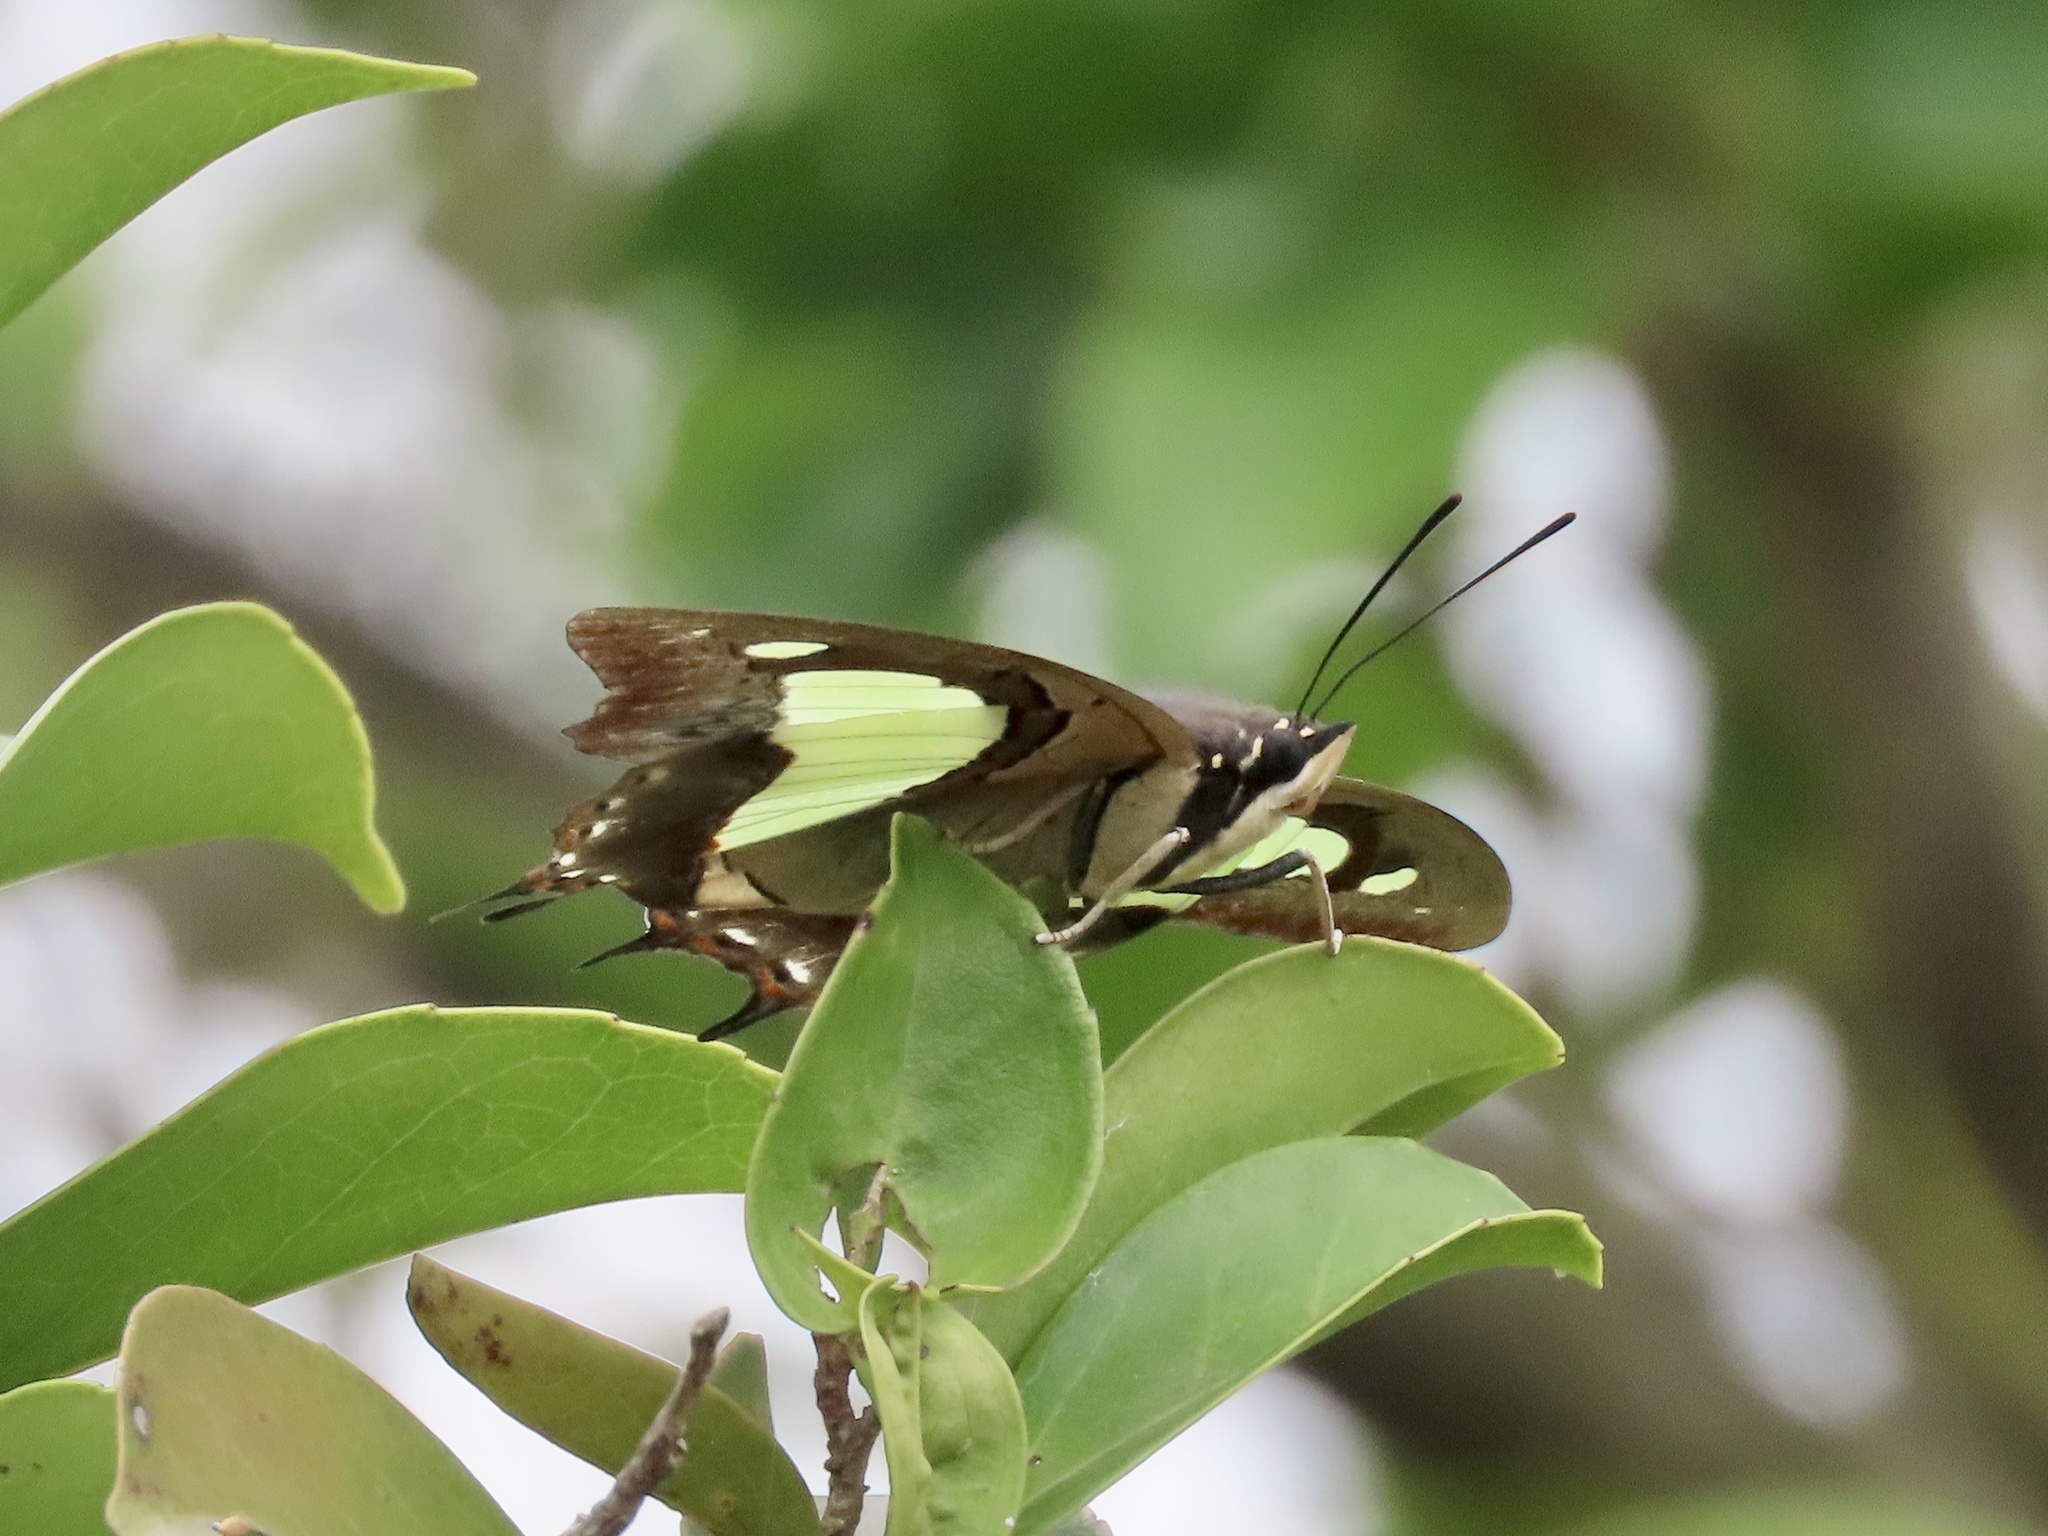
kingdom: Animalia
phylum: Arthropoda
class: Insecta
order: Lepidoptera
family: Nymphalidae
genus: Polyura
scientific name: Polyura athamas
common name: Common nawab
